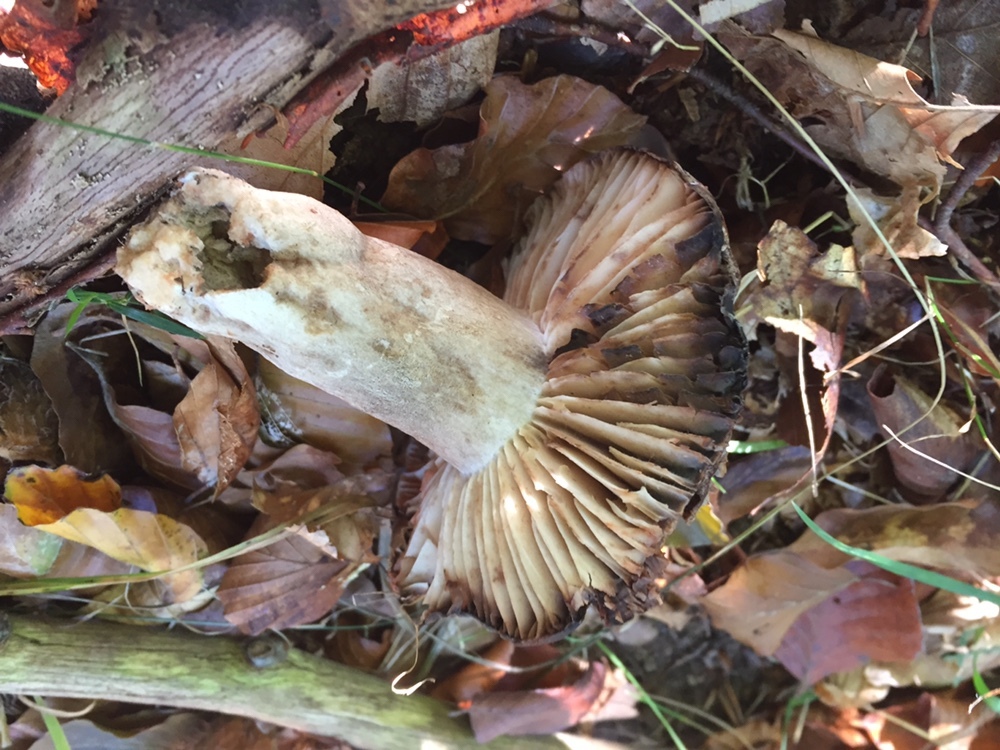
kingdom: Fungi
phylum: Basidiomycota
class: Agaricomycetes
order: Russulales
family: Russulaceae
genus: Russula
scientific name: Russula adusta
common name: Winecork brittlegill
